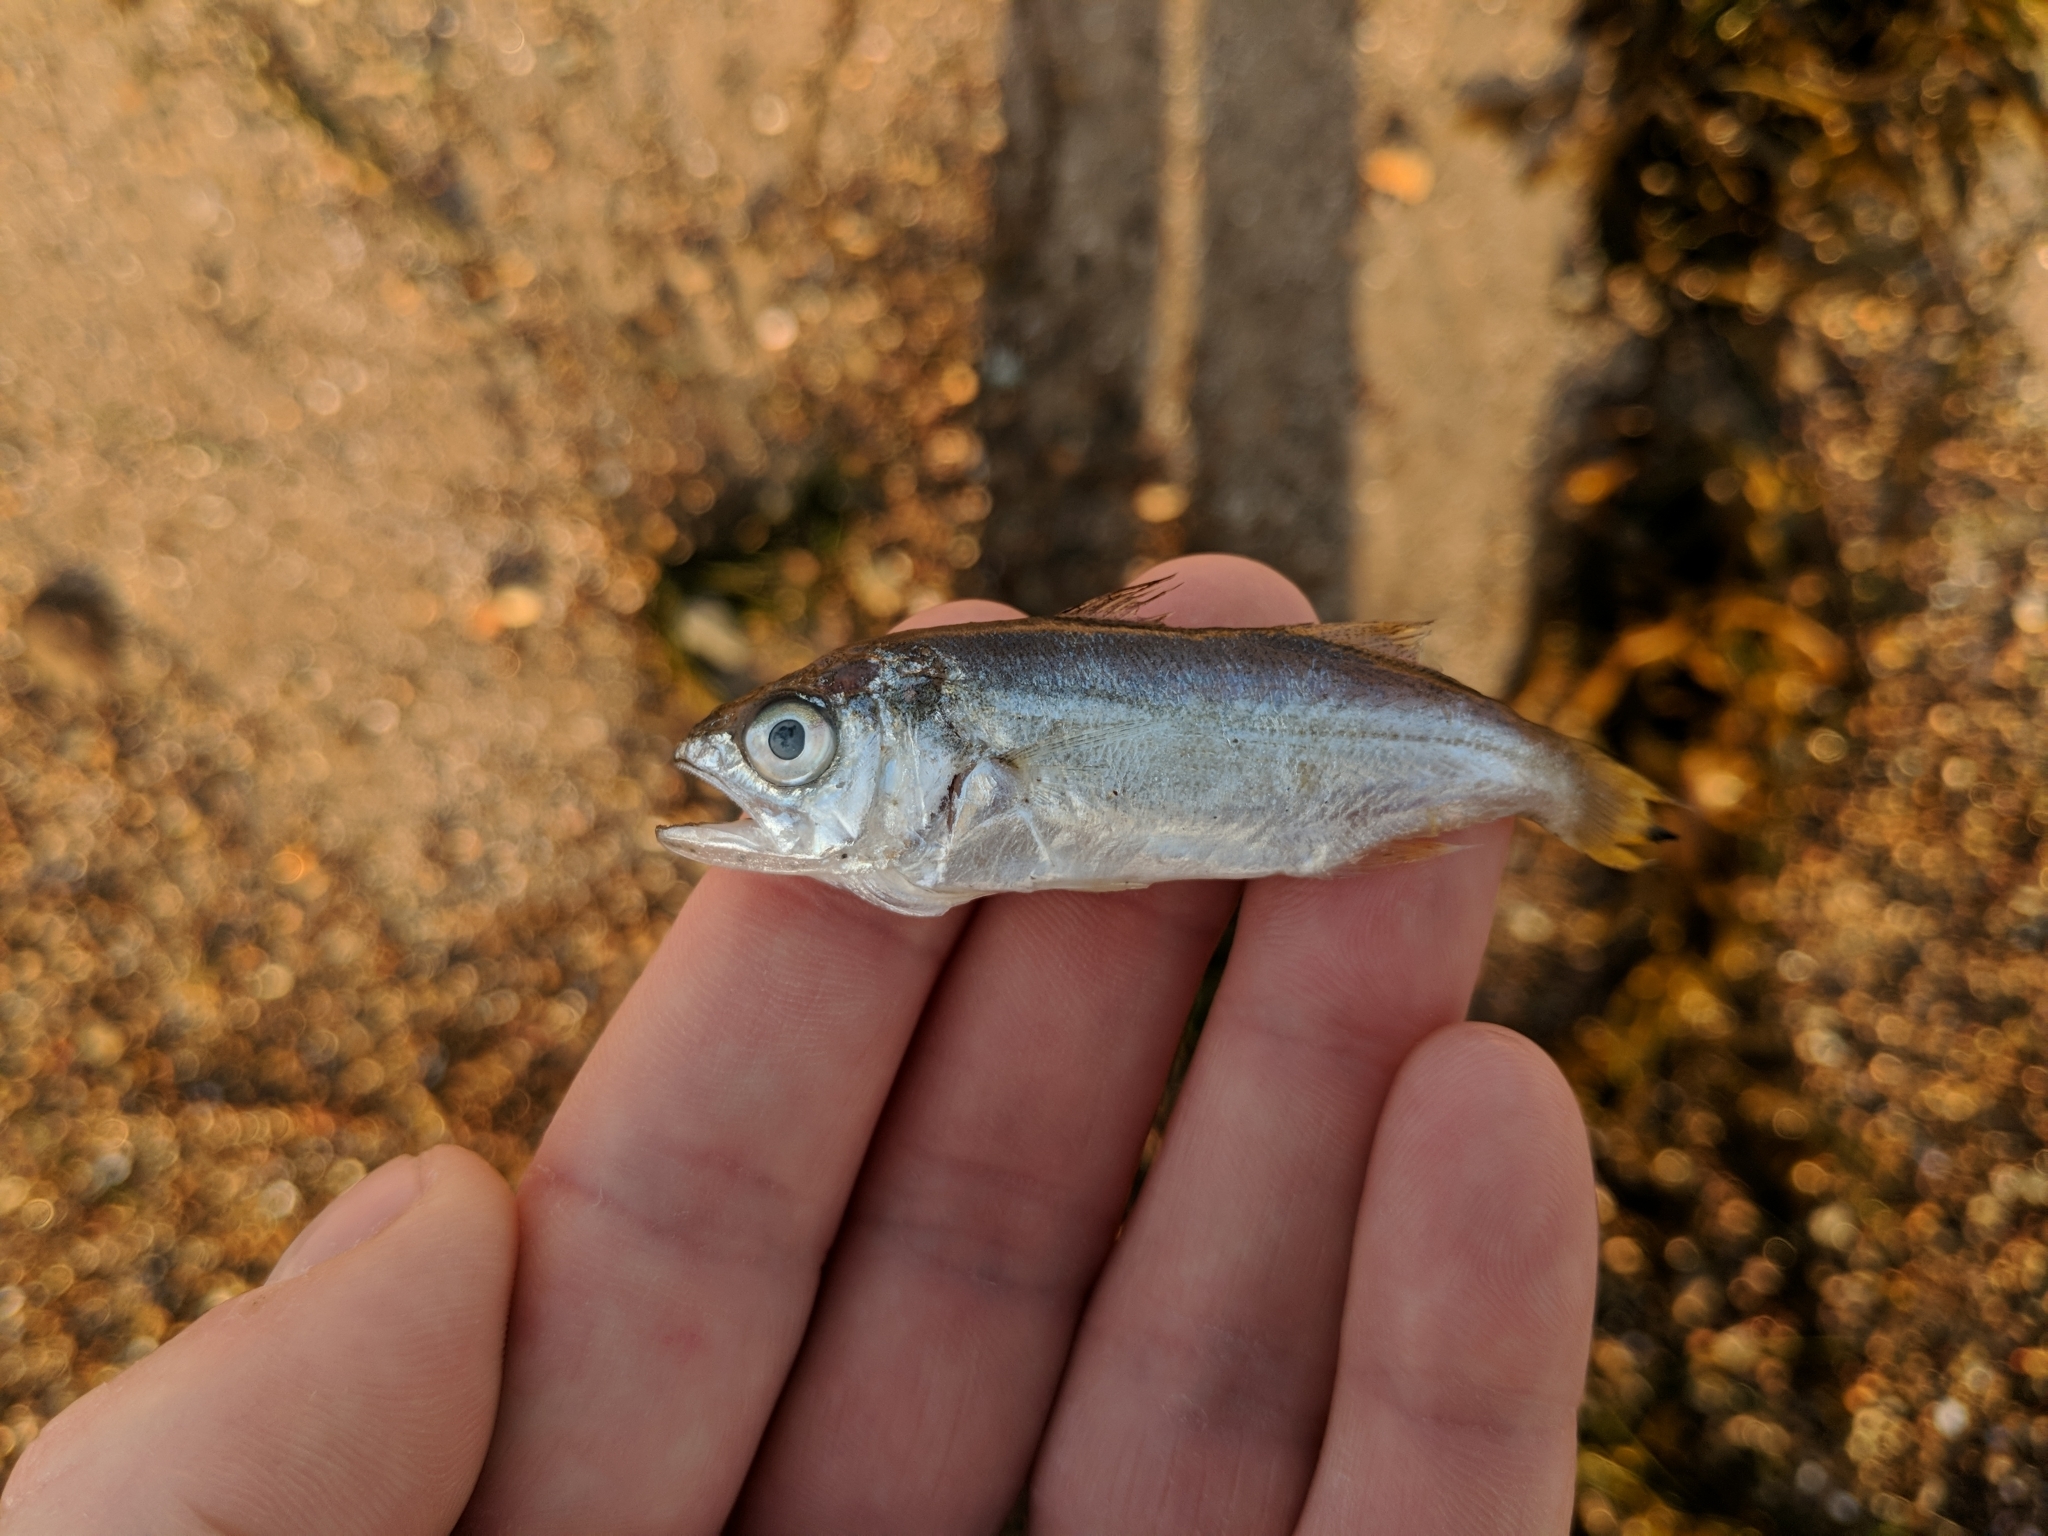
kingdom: Animalia
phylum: Chordata
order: Perciformes
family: Sciaenidae
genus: Seriphus
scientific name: Seriphus politus
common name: Queenfish
